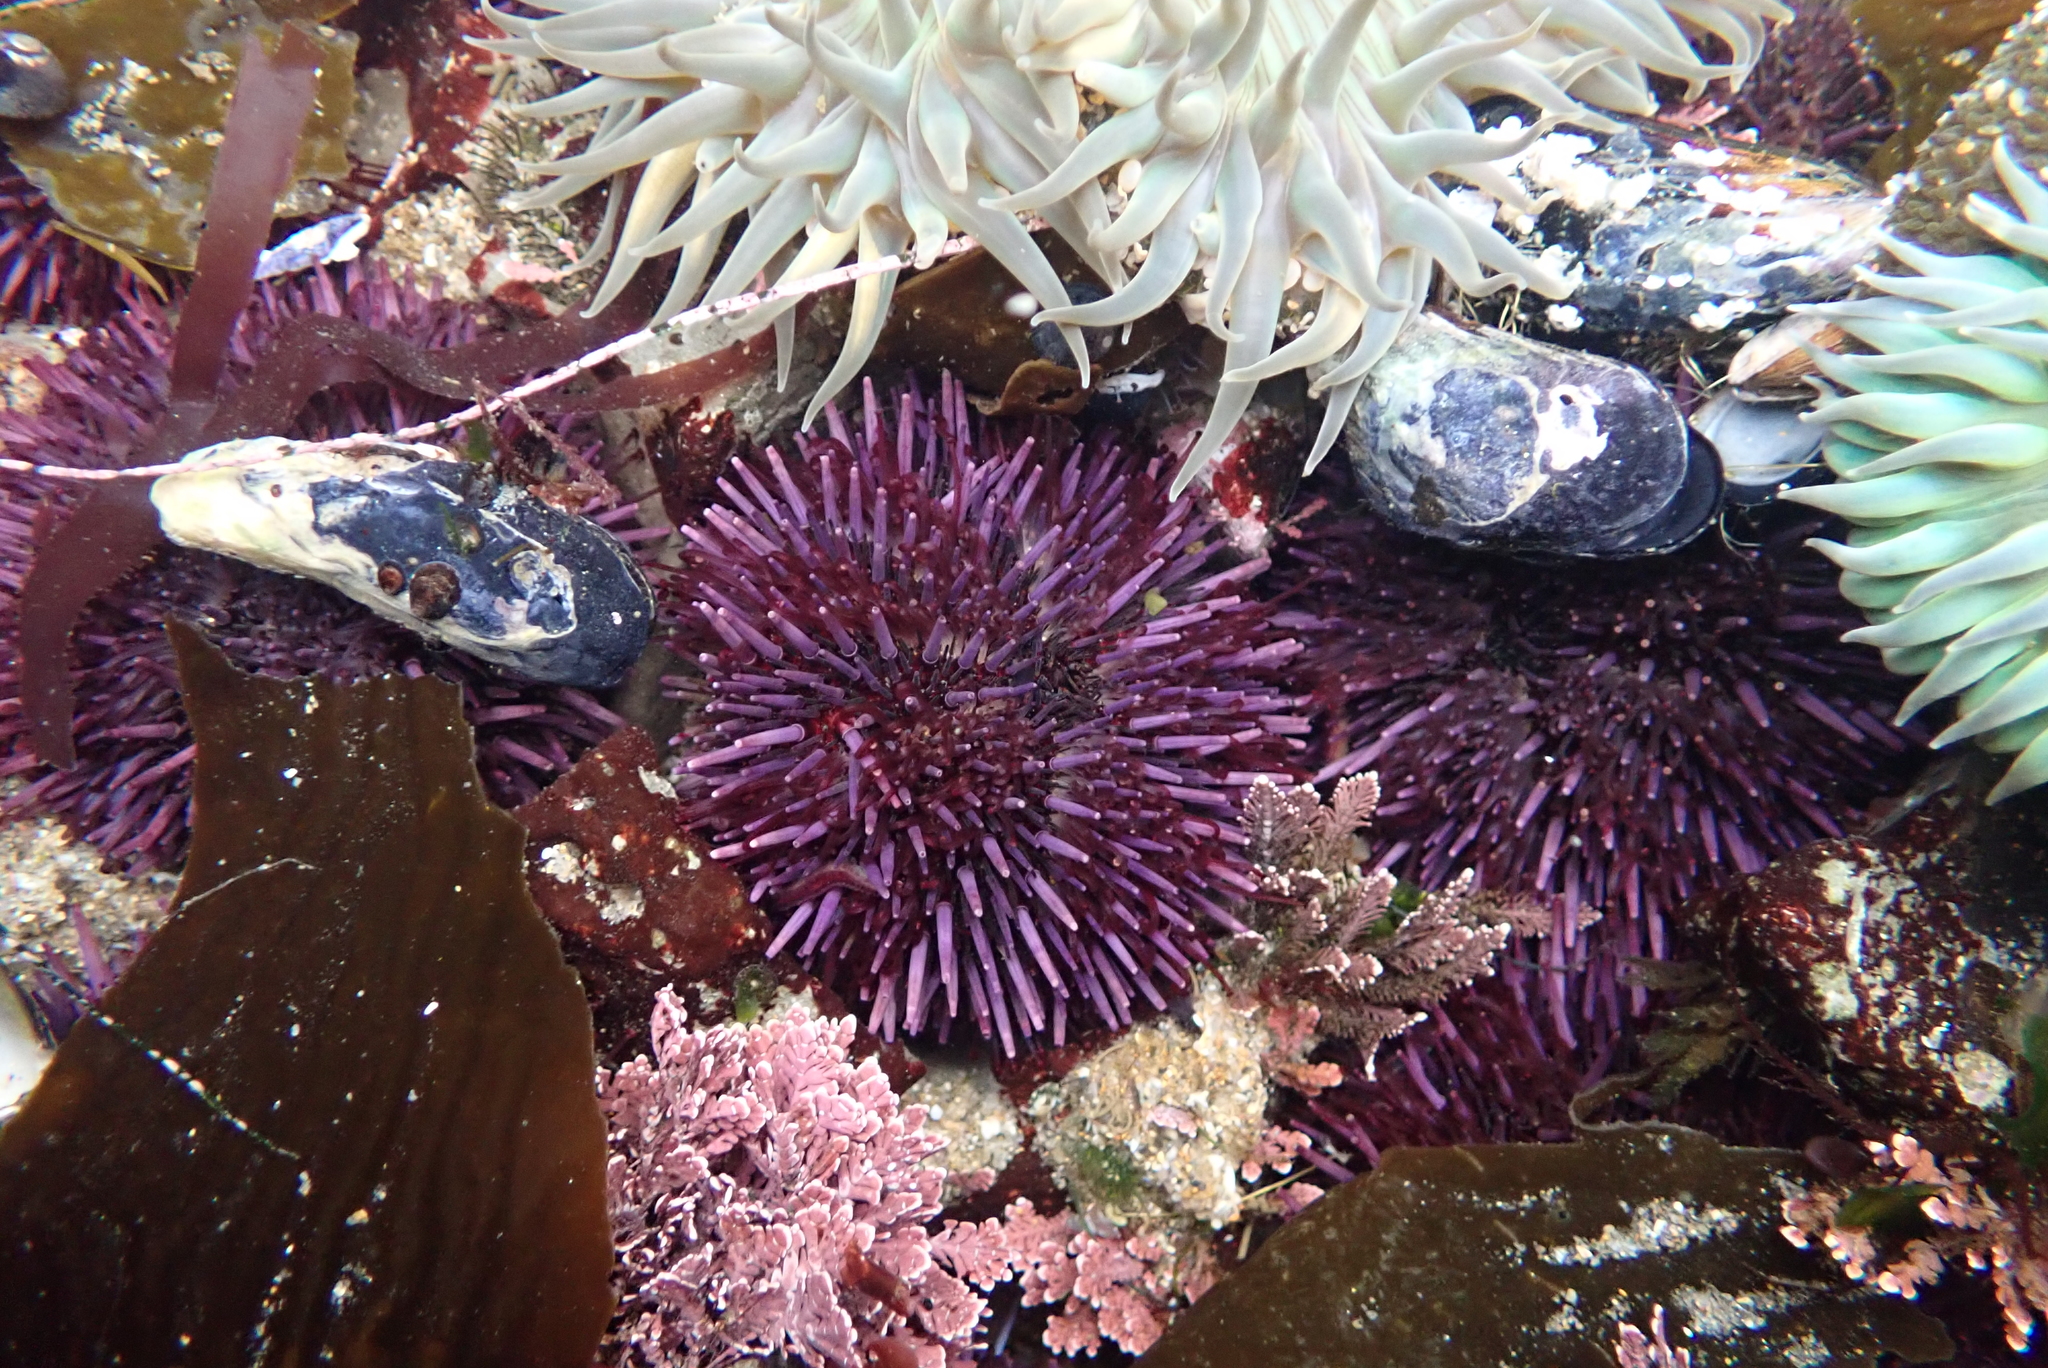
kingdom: Animalia
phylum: Echinodermata
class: Echinoidea
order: Camarodonta
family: Strongylocentrotidae
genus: Strongylocentrotus
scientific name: Strongylocentrotus purpuratus
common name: Purple sea urchin
